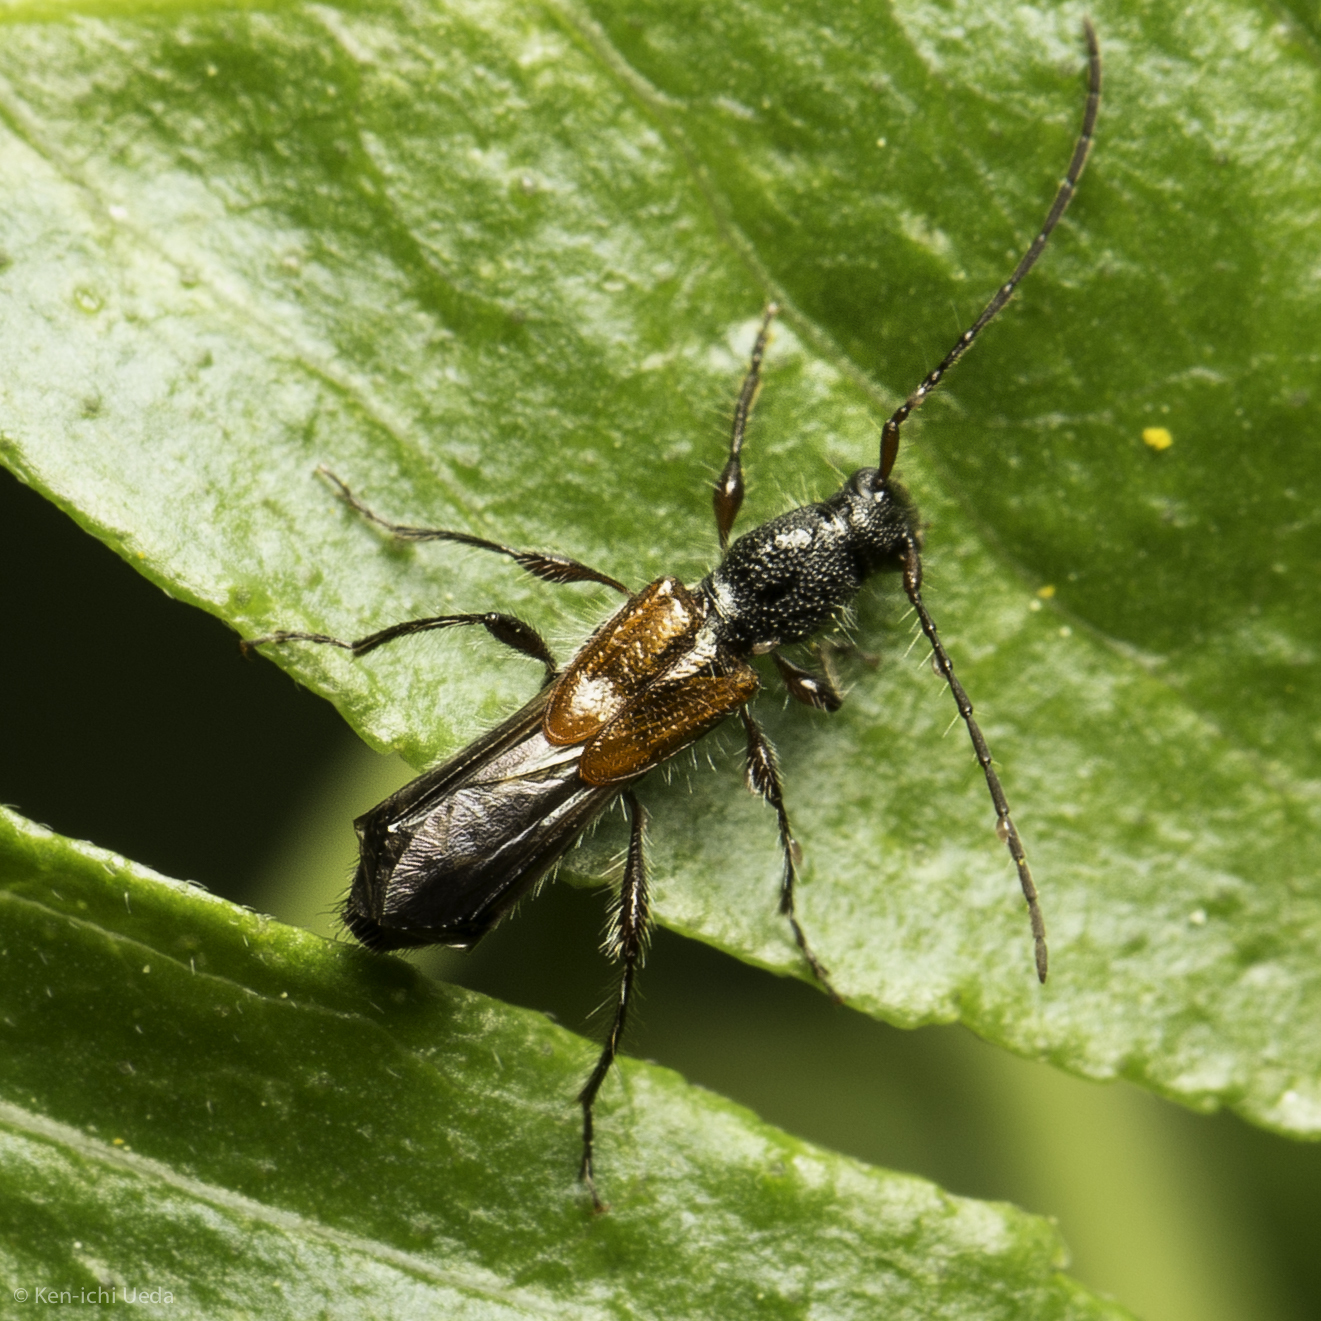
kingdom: Animalia
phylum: Arthropoda
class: Insecta
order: Coleoptera
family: Cerambycidae
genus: Molorchus
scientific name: Molorchus longicollis
